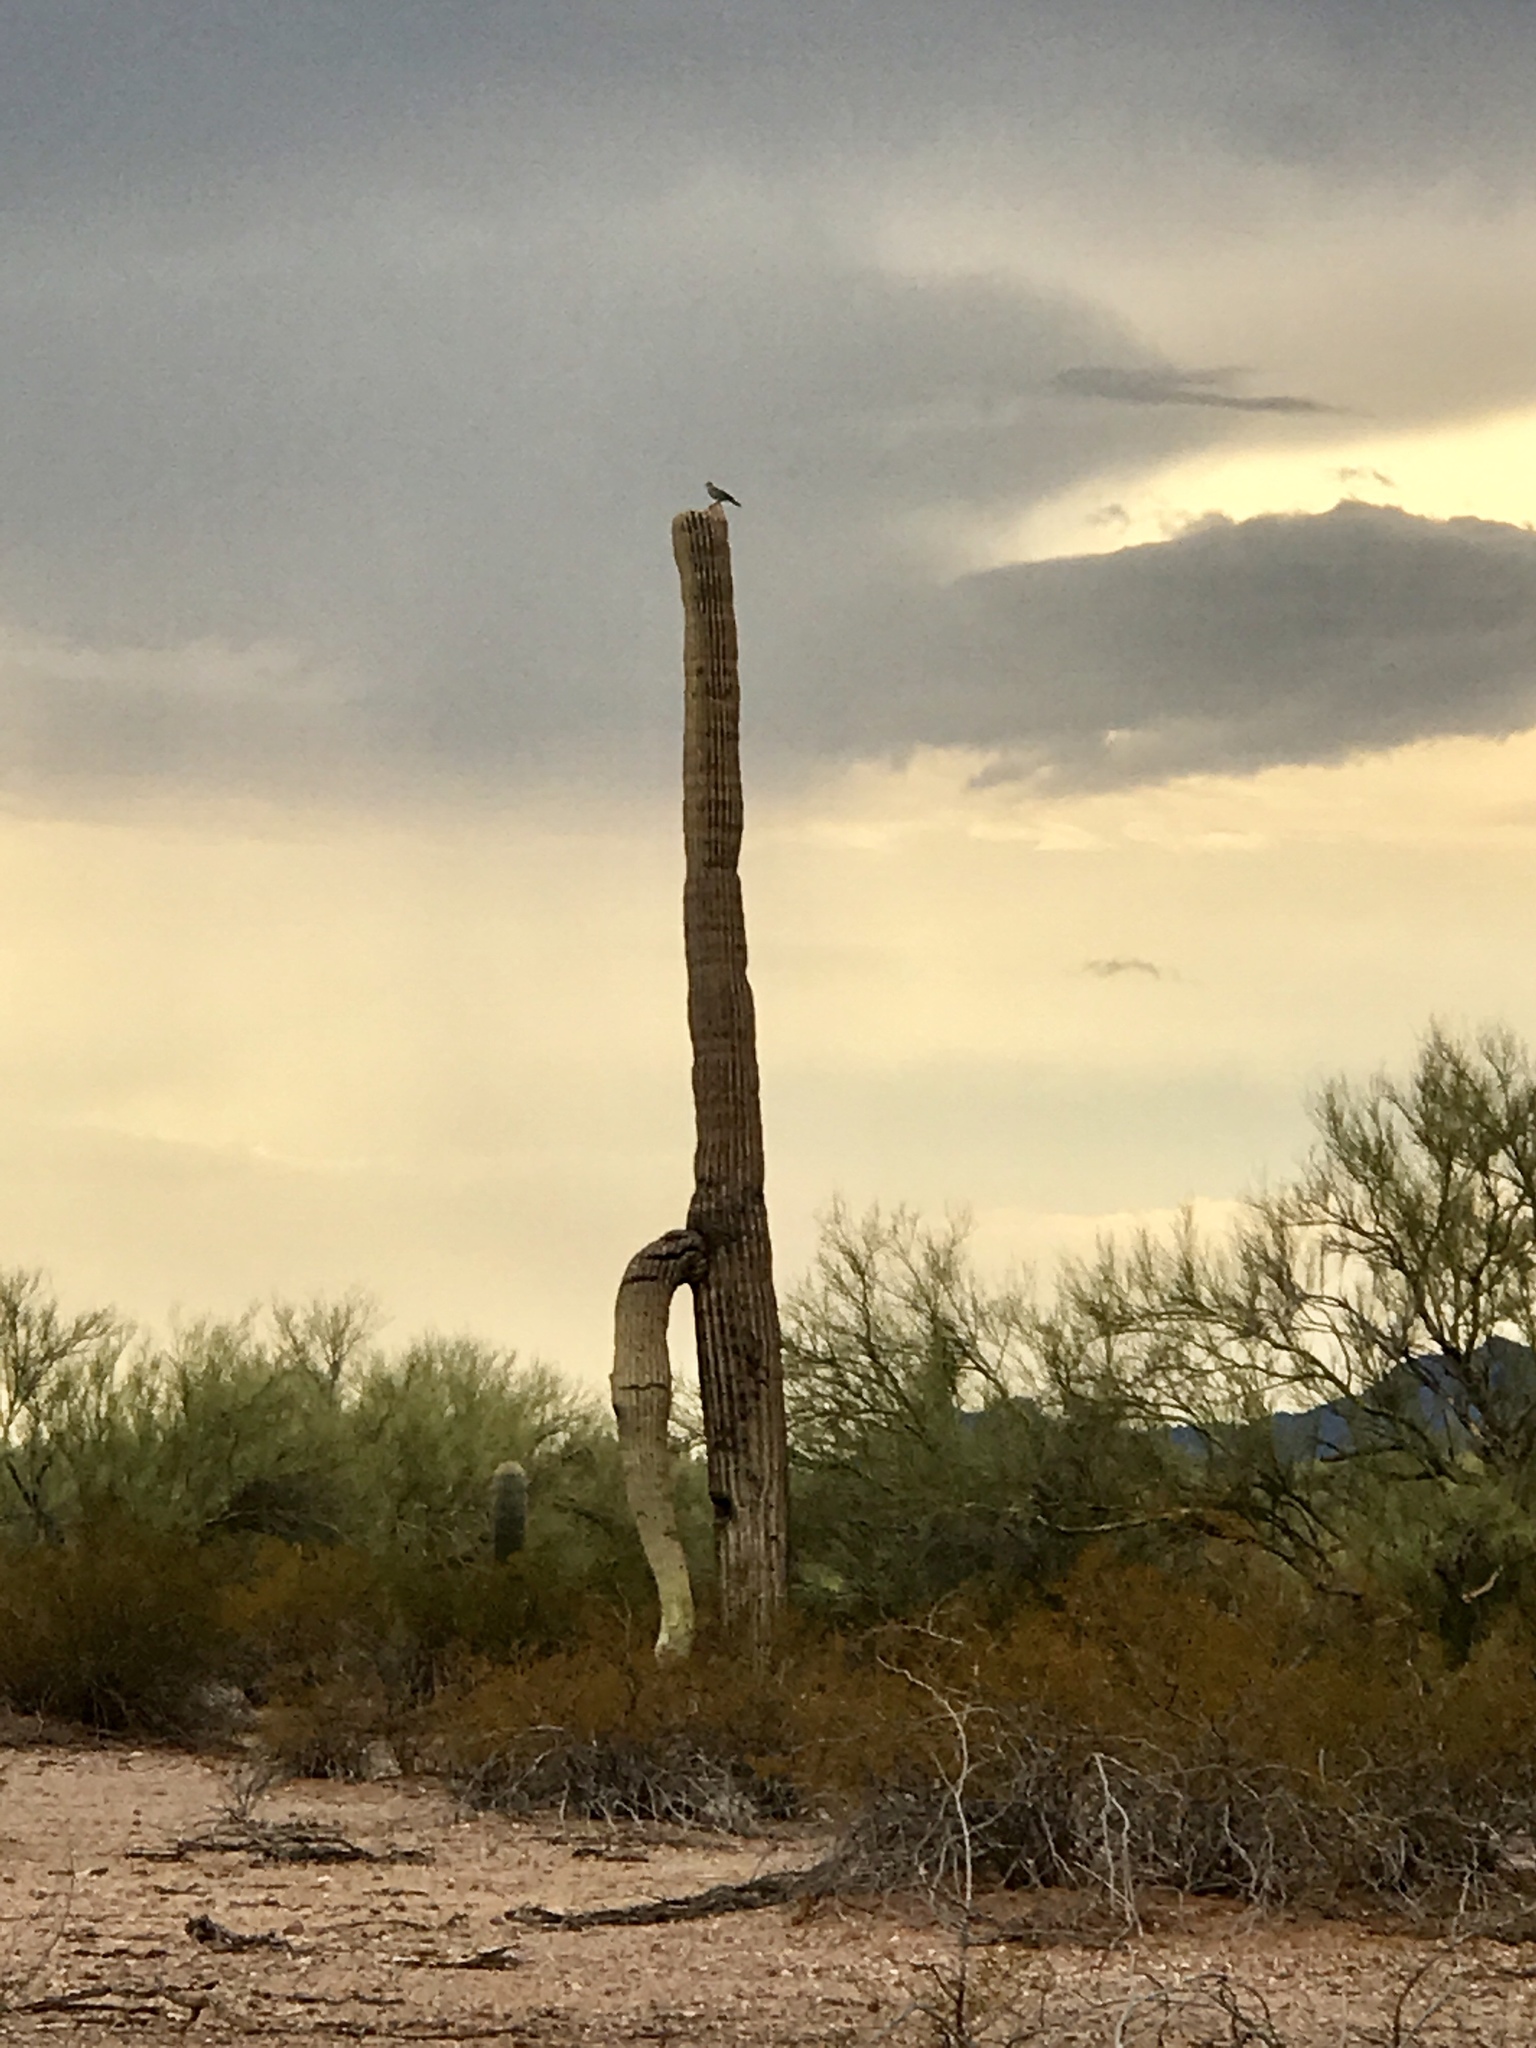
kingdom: Plantae
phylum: Tracheophyta
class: Magnoliopsida
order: Caryophyllales
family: Cactaceae
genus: Carnegiea
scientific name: Carnegiea gigantea
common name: Saguaro
